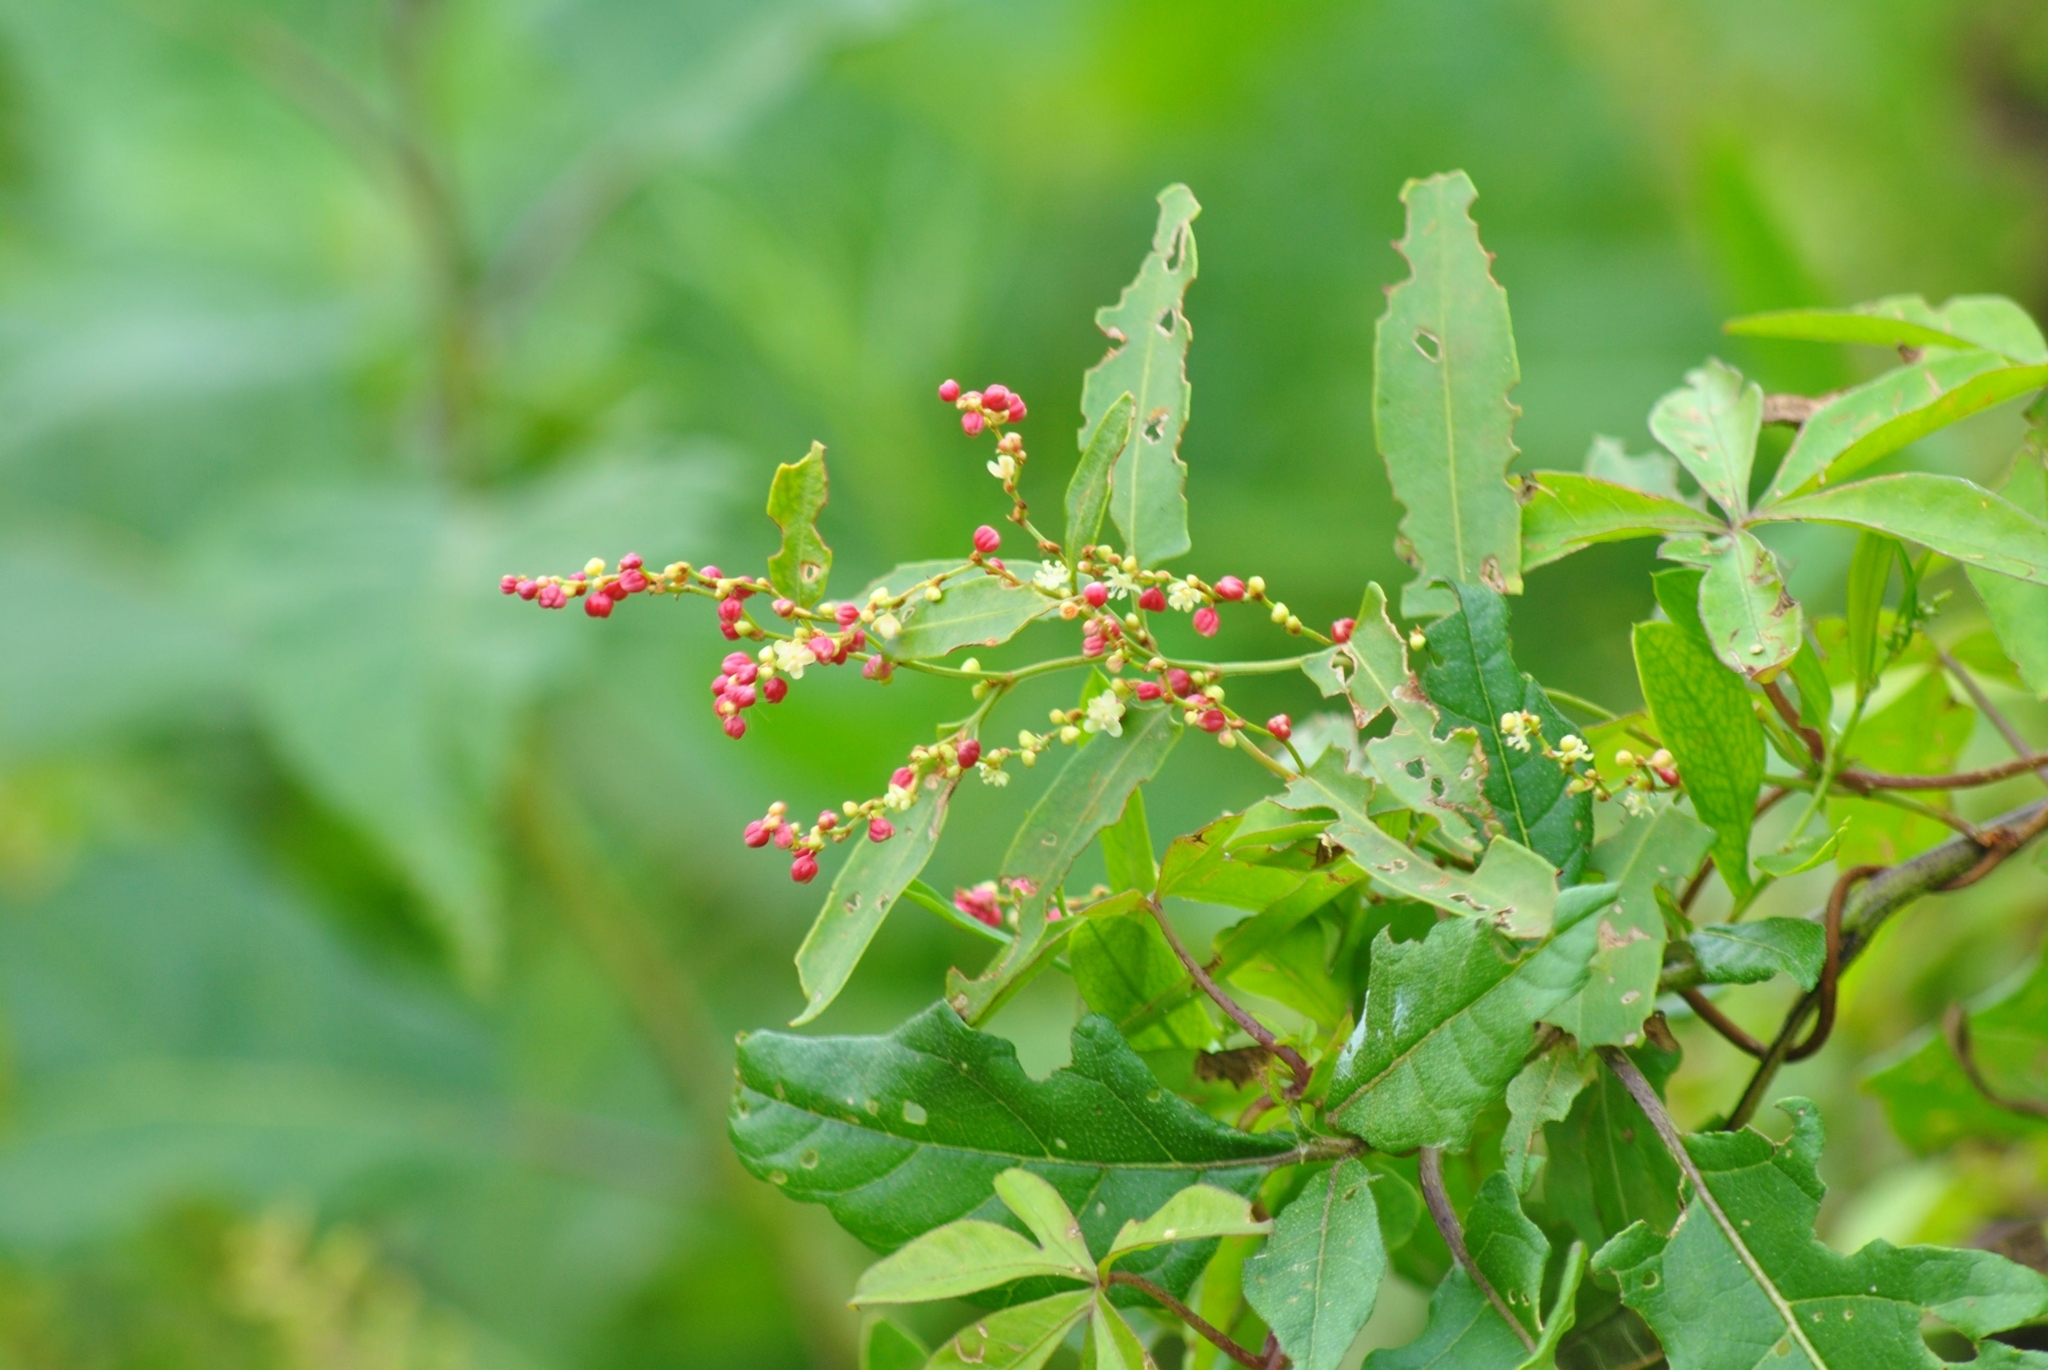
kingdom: Plantae
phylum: Tracheophyta
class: Magnoliopsida
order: Caryophyllales
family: Polygonaceae
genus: Muehlenbeckia
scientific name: Muehlenbeckia sagittifolia
